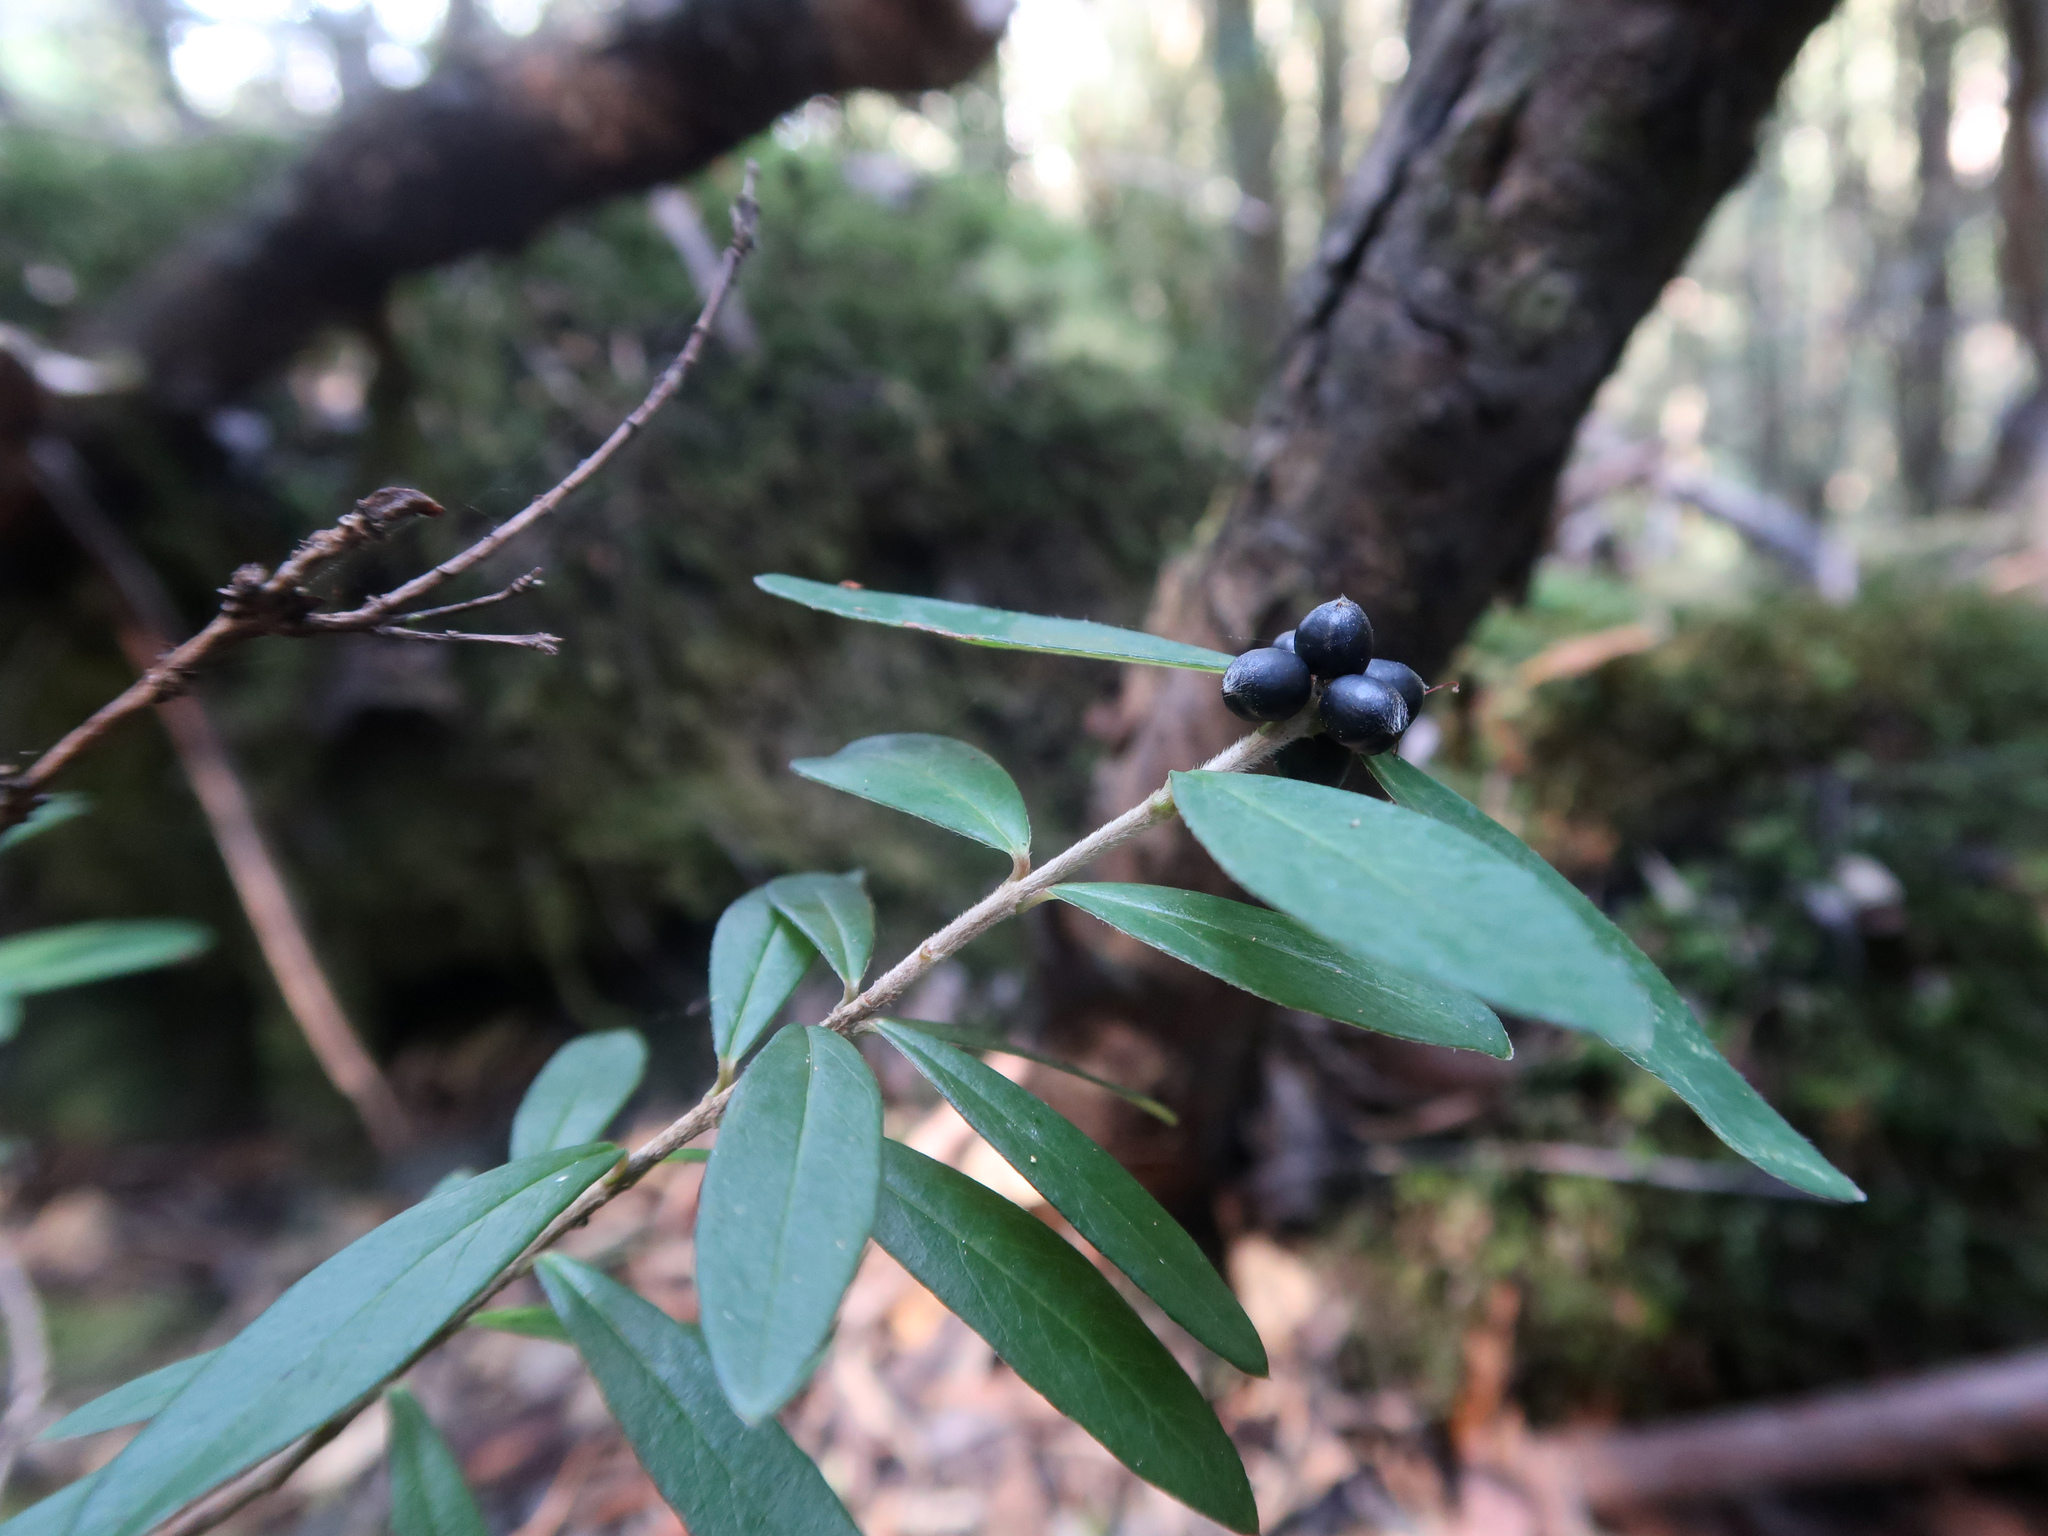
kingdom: Plantae
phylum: Tracheophyta
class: Magnoliopsida
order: Malvales
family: Thymelaeaceae
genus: Pimelea
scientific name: Pimelea drupacea
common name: Cherry riceflower
